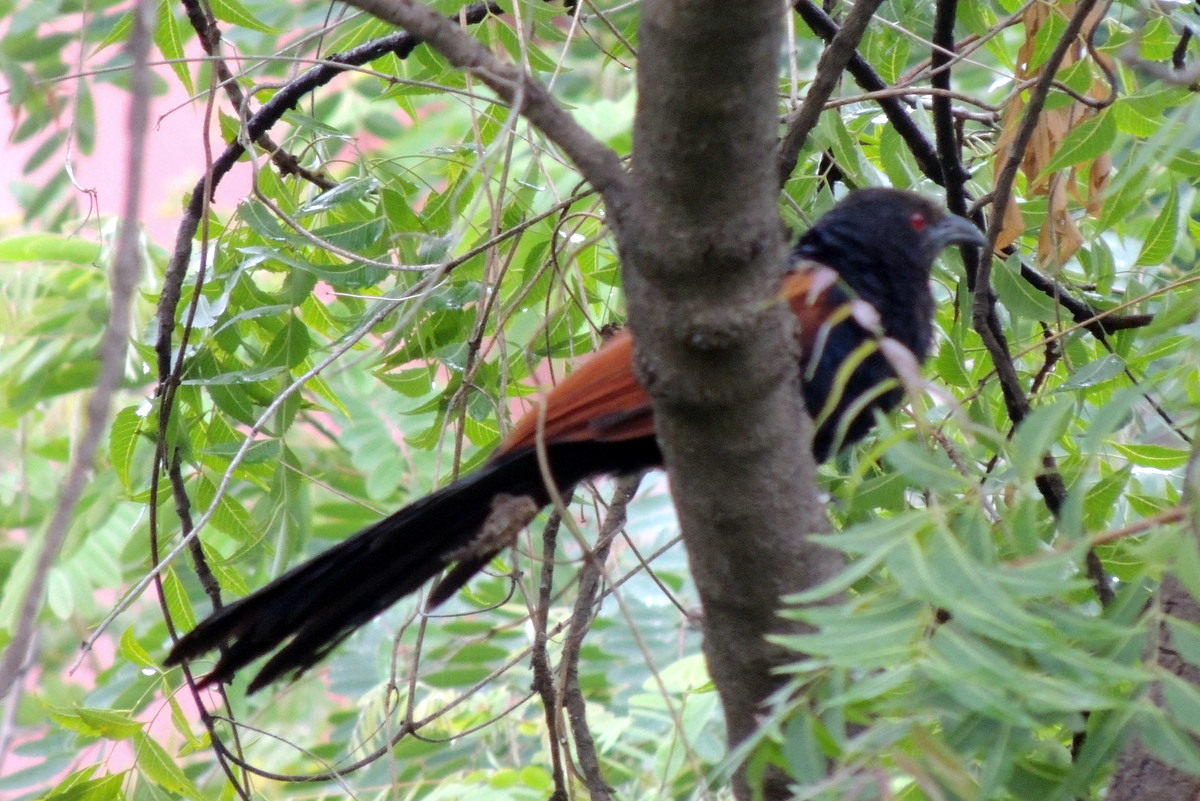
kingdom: Animalia
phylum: Chordata
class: Aves
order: Cuculiformes
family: Cuculidae
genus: Centropus
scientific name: Centropus sinensis
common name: Greater coucal
